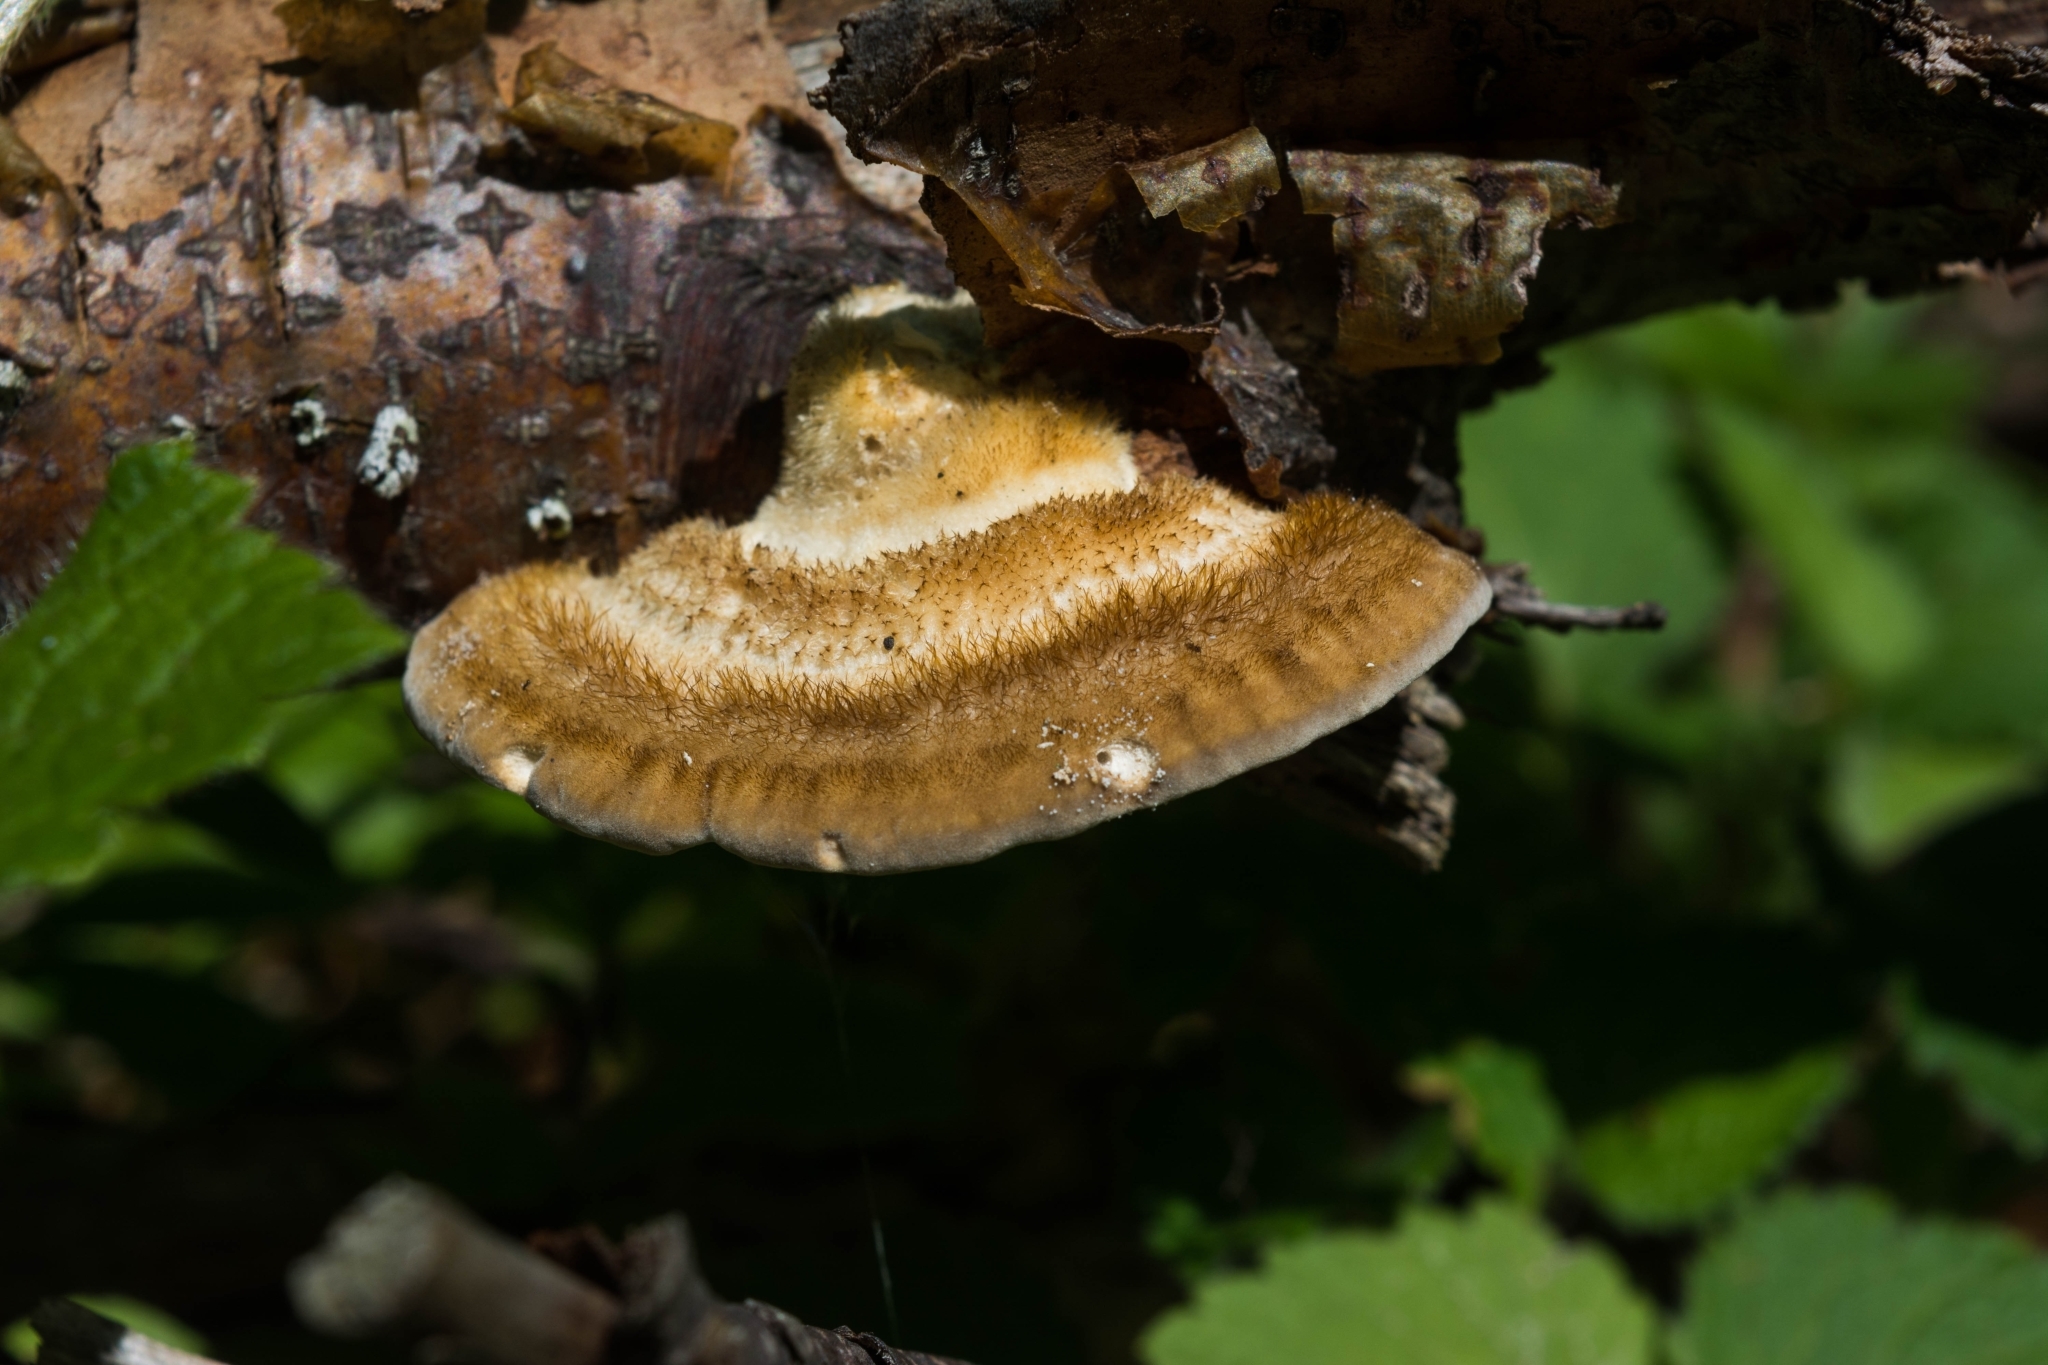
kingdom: Fungi
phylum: Basidiomycota
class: Agaricomycetes
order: Polyporales
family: Polyporaceae
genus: Trametes
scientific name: Trametes hirsuta
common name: Hairy bracket
